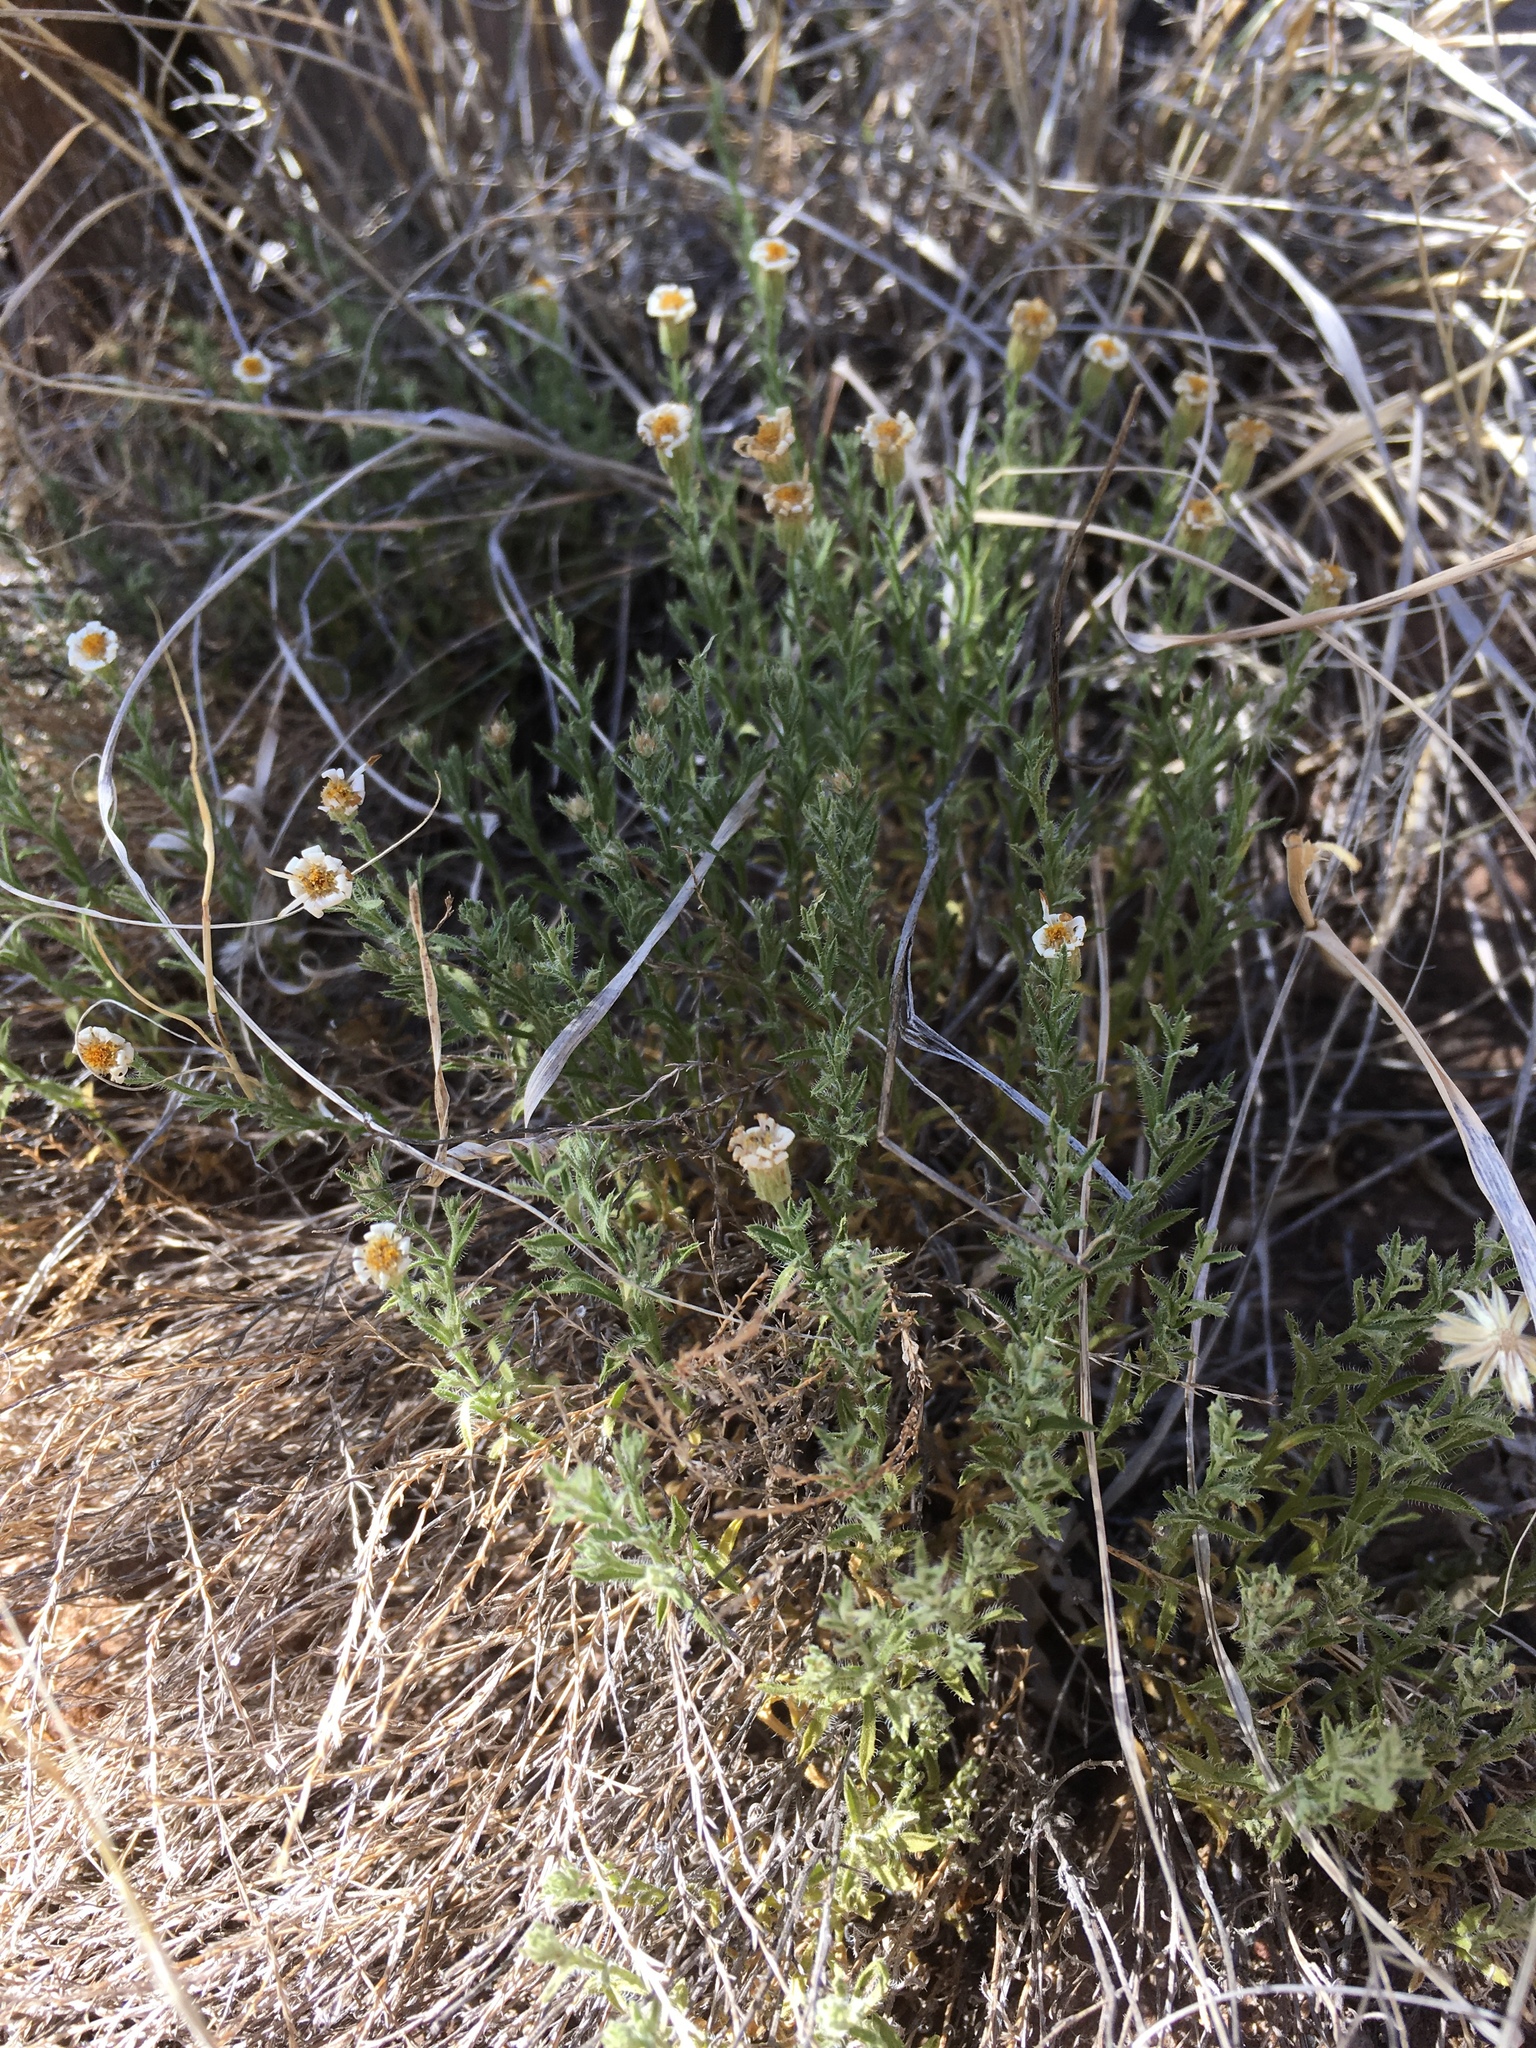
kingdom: Plantae
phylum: Tracheophyta
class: Magnoliopsida
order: Asterales
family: Asteraceae
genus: Chaetopappa
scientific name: Chaetopappa ericoides
